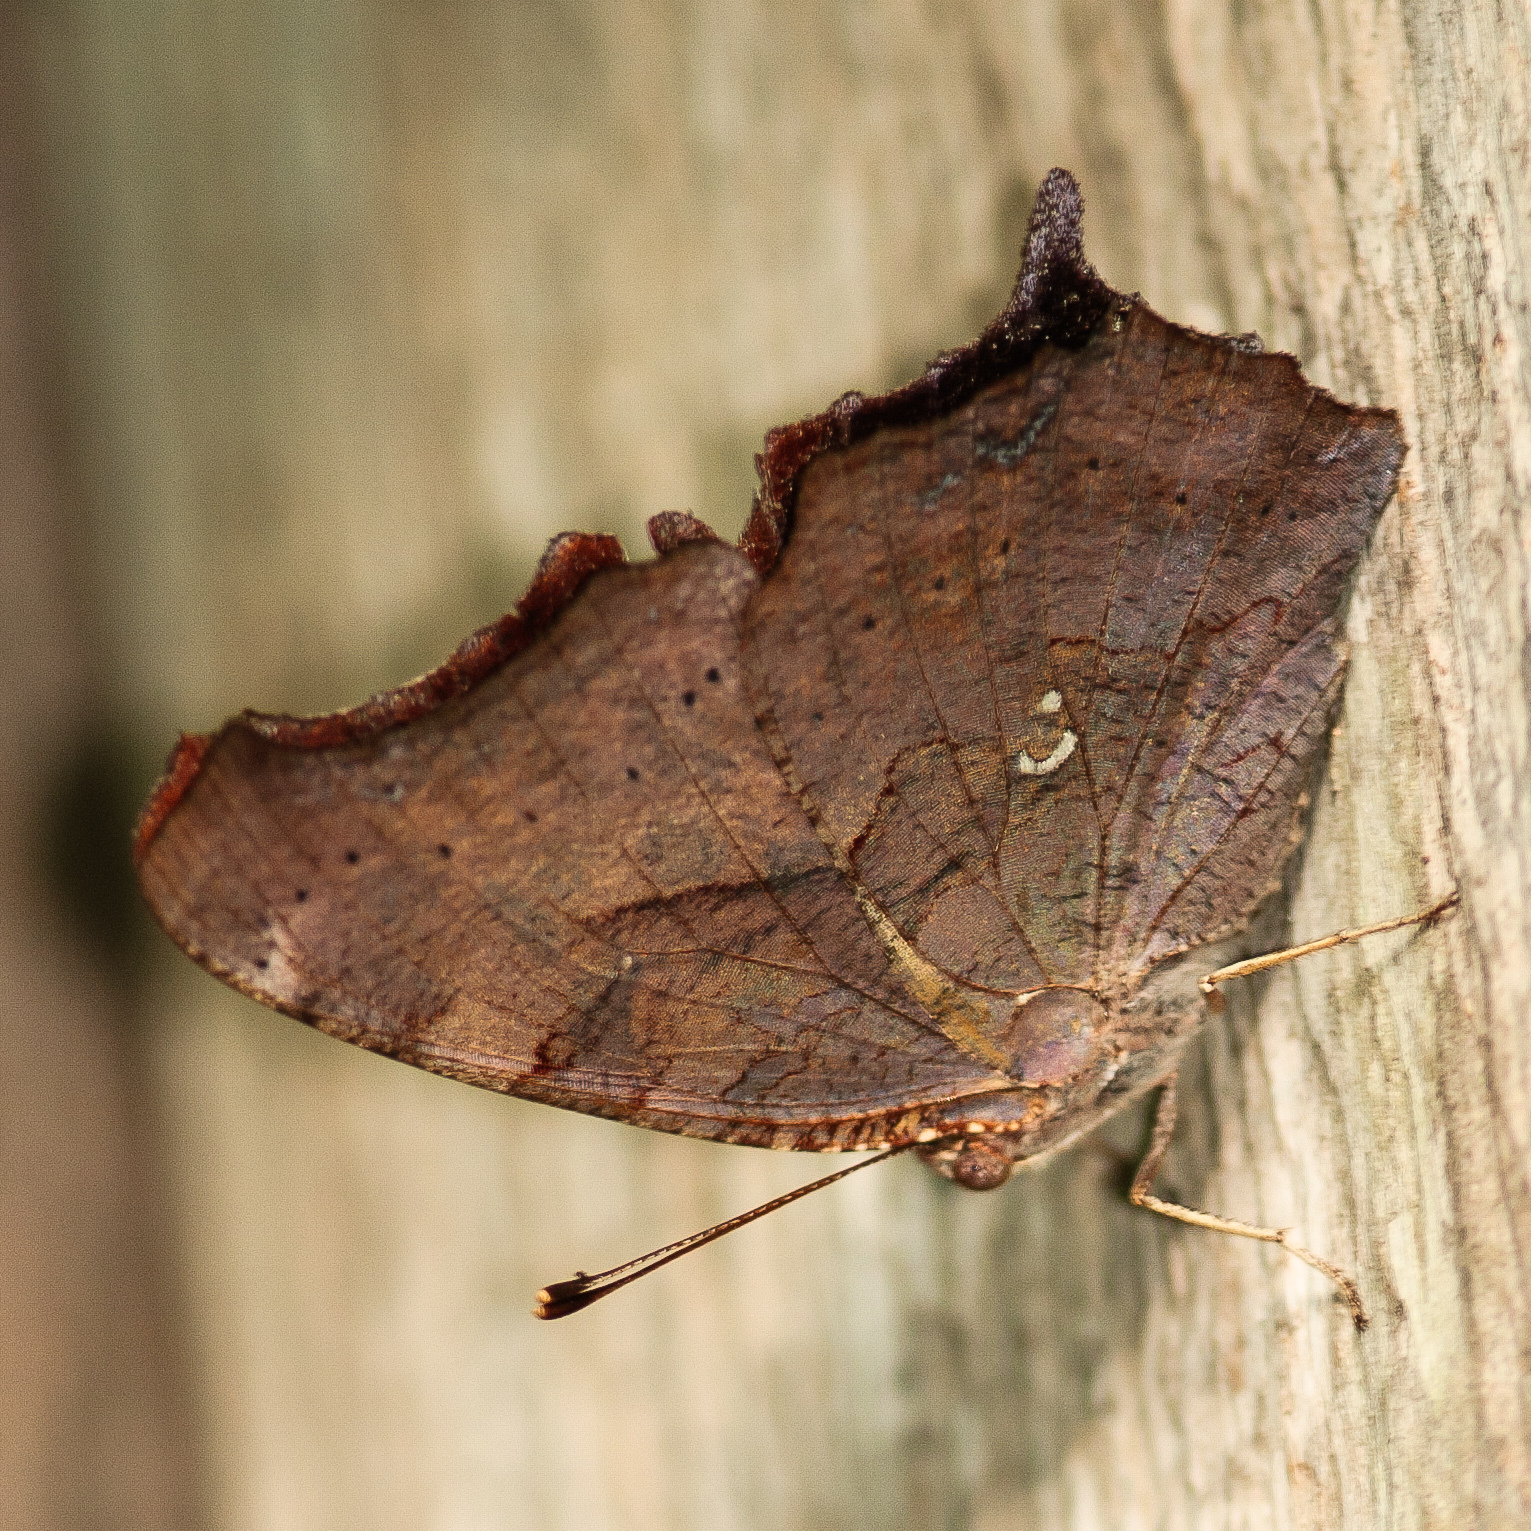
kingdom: Animalia
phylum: Arthropoda
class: Insecta
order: Lepidoptera
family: Nymphalidae
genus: Polygonia
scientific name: Polygonia interrogationis
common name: Question mark
